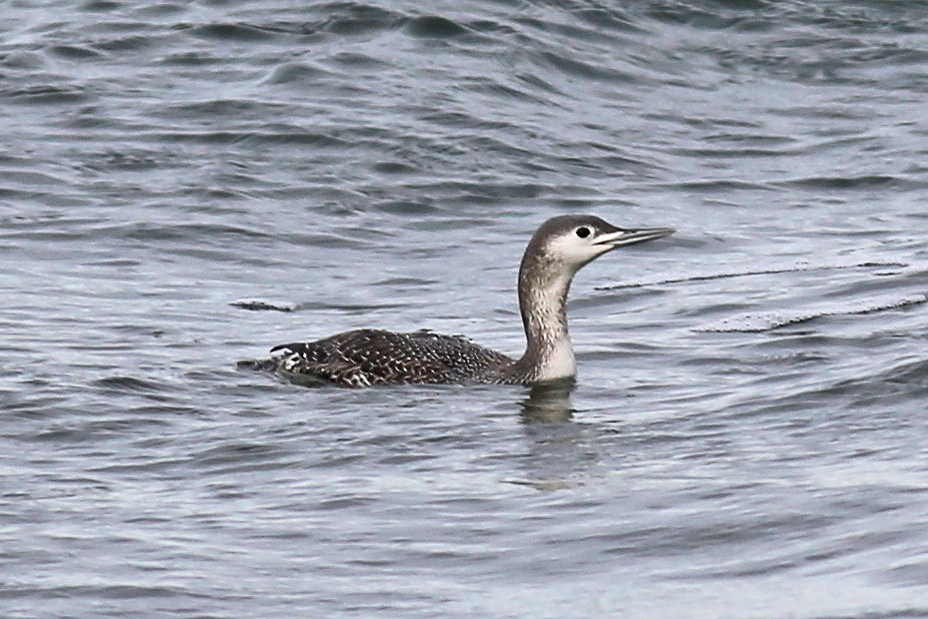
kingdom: Animalia
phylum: Chordata
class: Aves
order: Gaviiformes
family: Gaviidae
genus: Gavia
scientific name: Gavia stellata
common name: Red-throated loon
